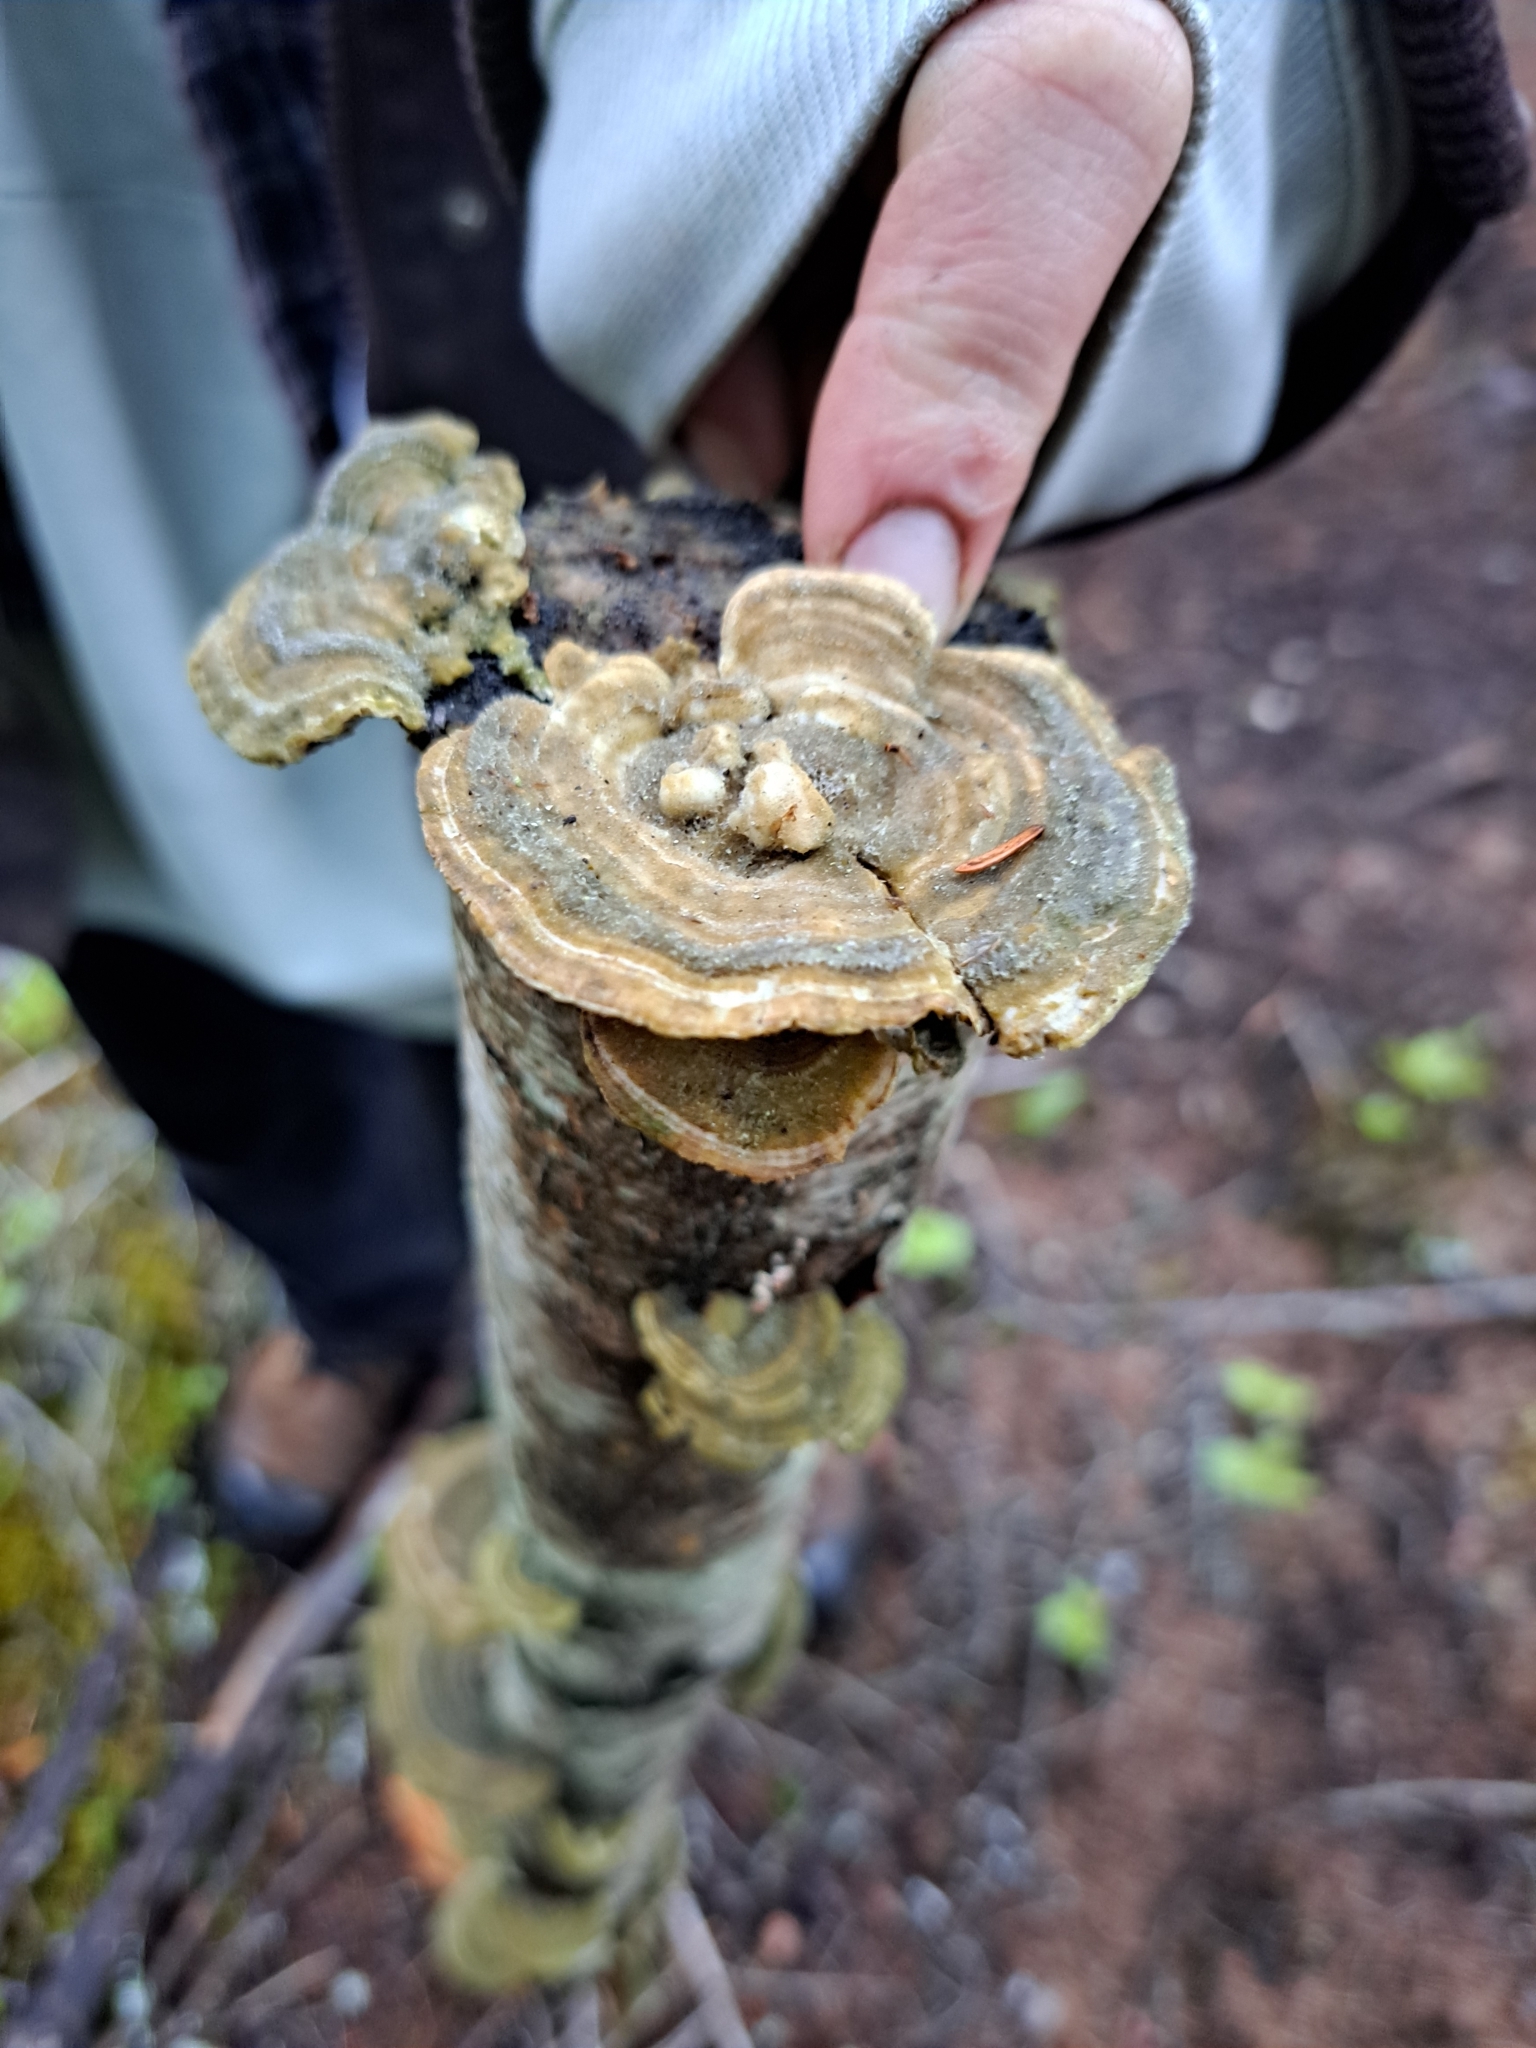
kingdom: Fungi
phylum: Basidiomycota
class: Agaricomycetes
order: Polyporales
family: Polyporaceae
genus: Lenzites
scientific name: Lenzites betulinus
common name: Birch mazegill
